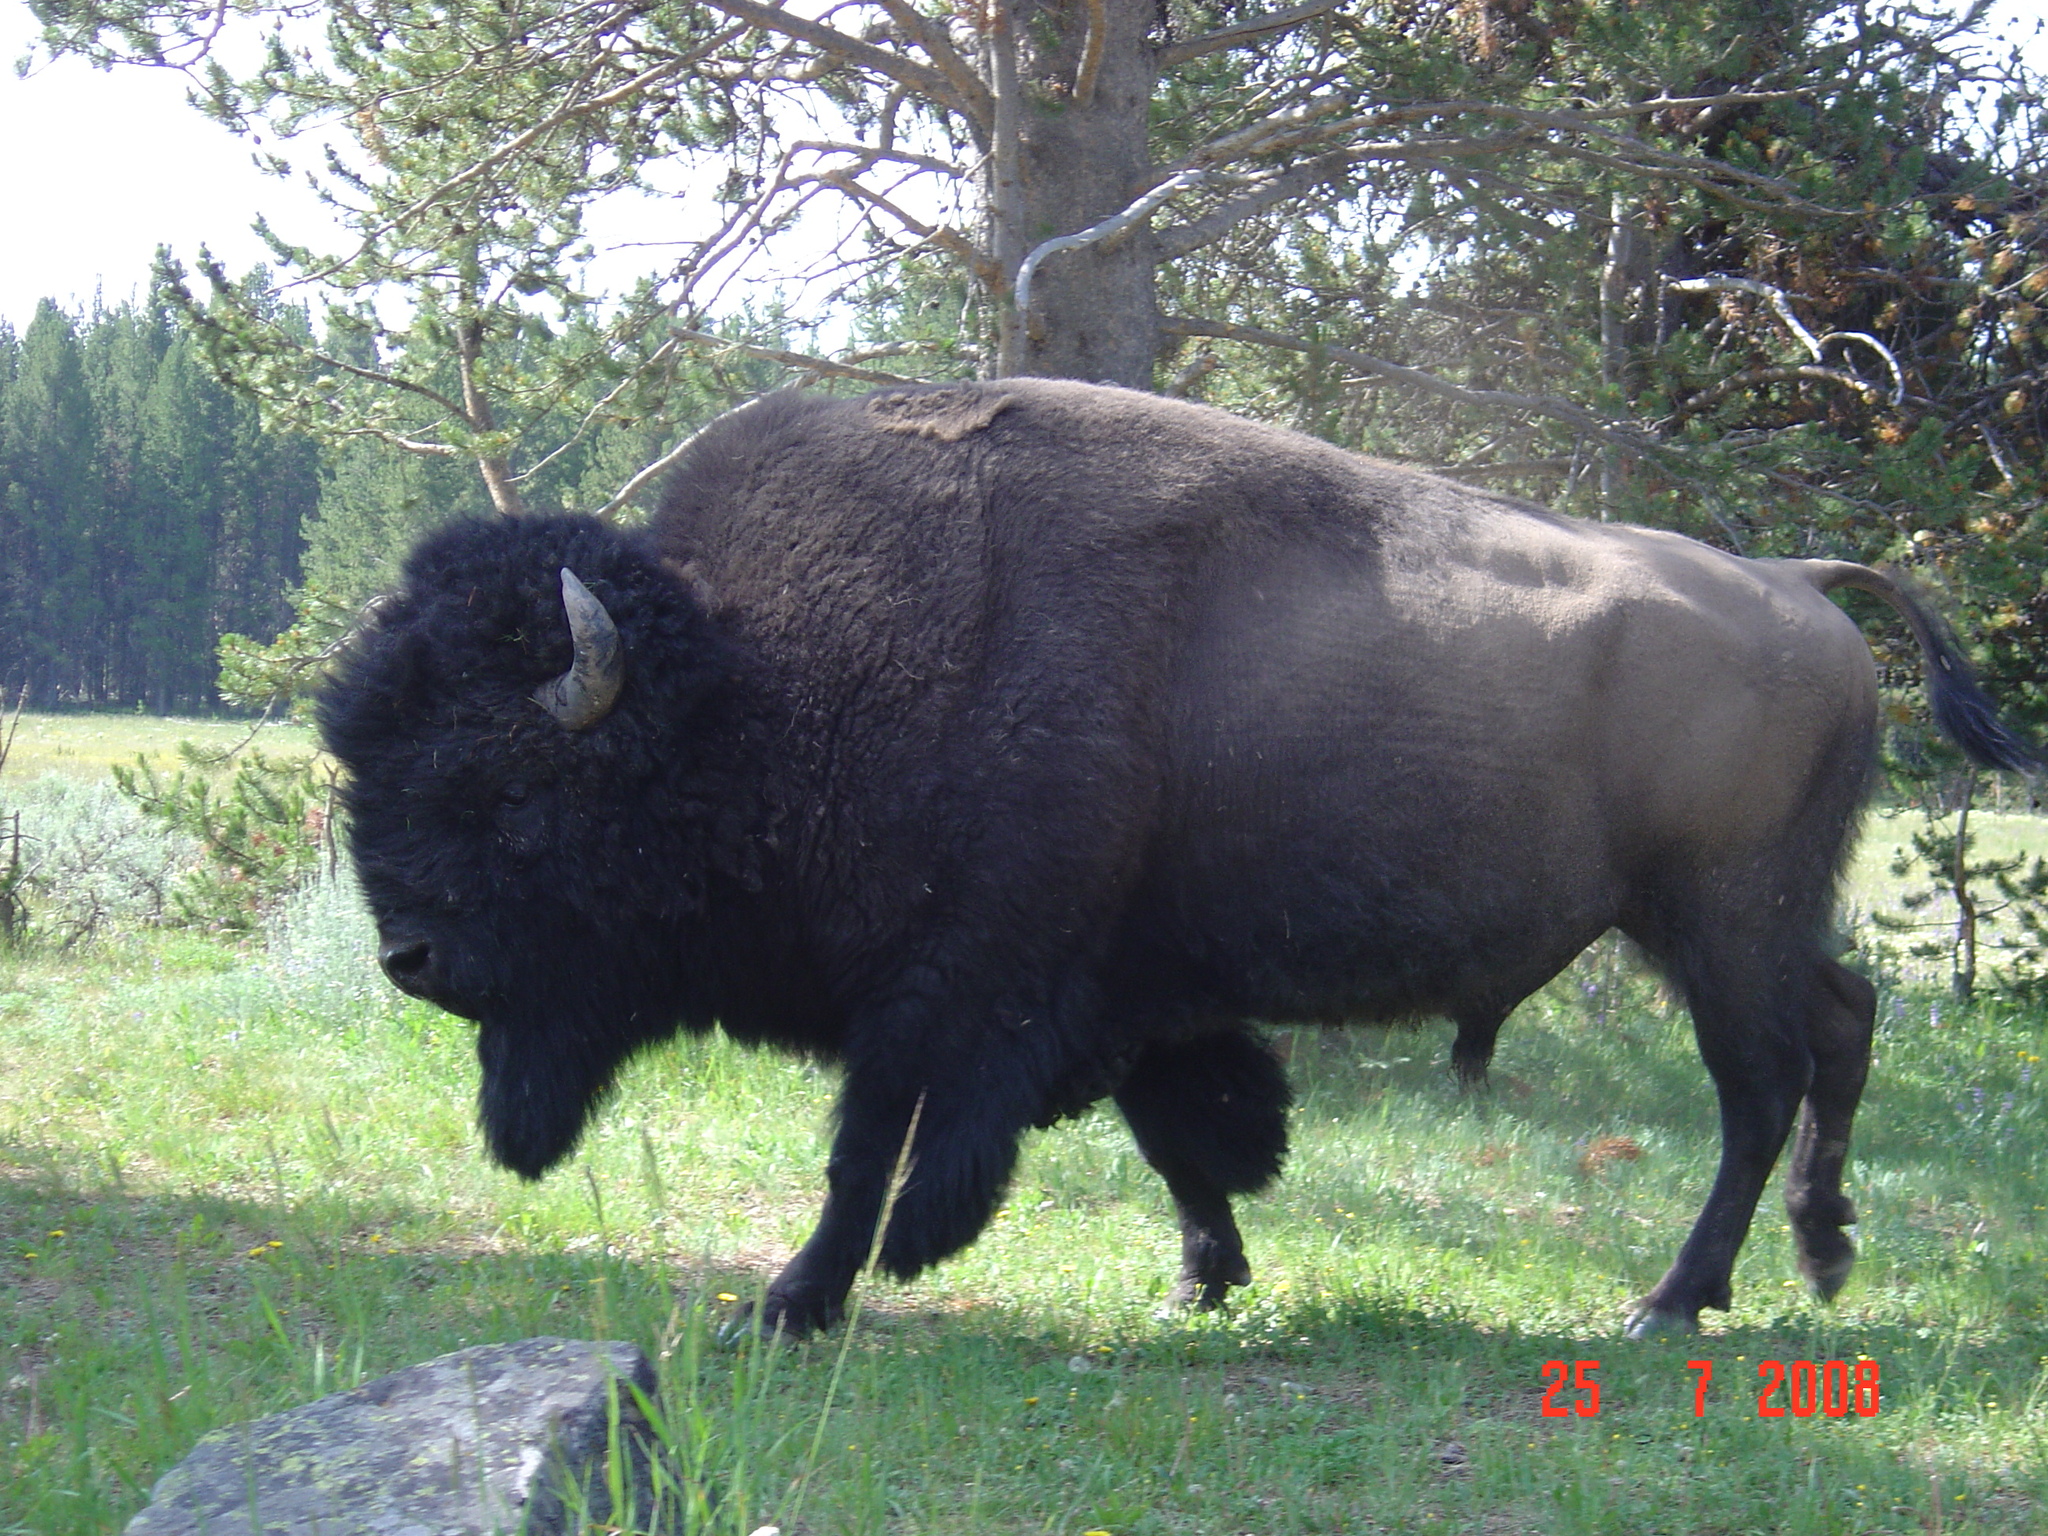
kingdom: Animalia
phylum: Chordata
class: Mammalia
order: Artiodactyla
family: Bovidae
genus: Bison
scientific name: Bison bison
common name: American bison
